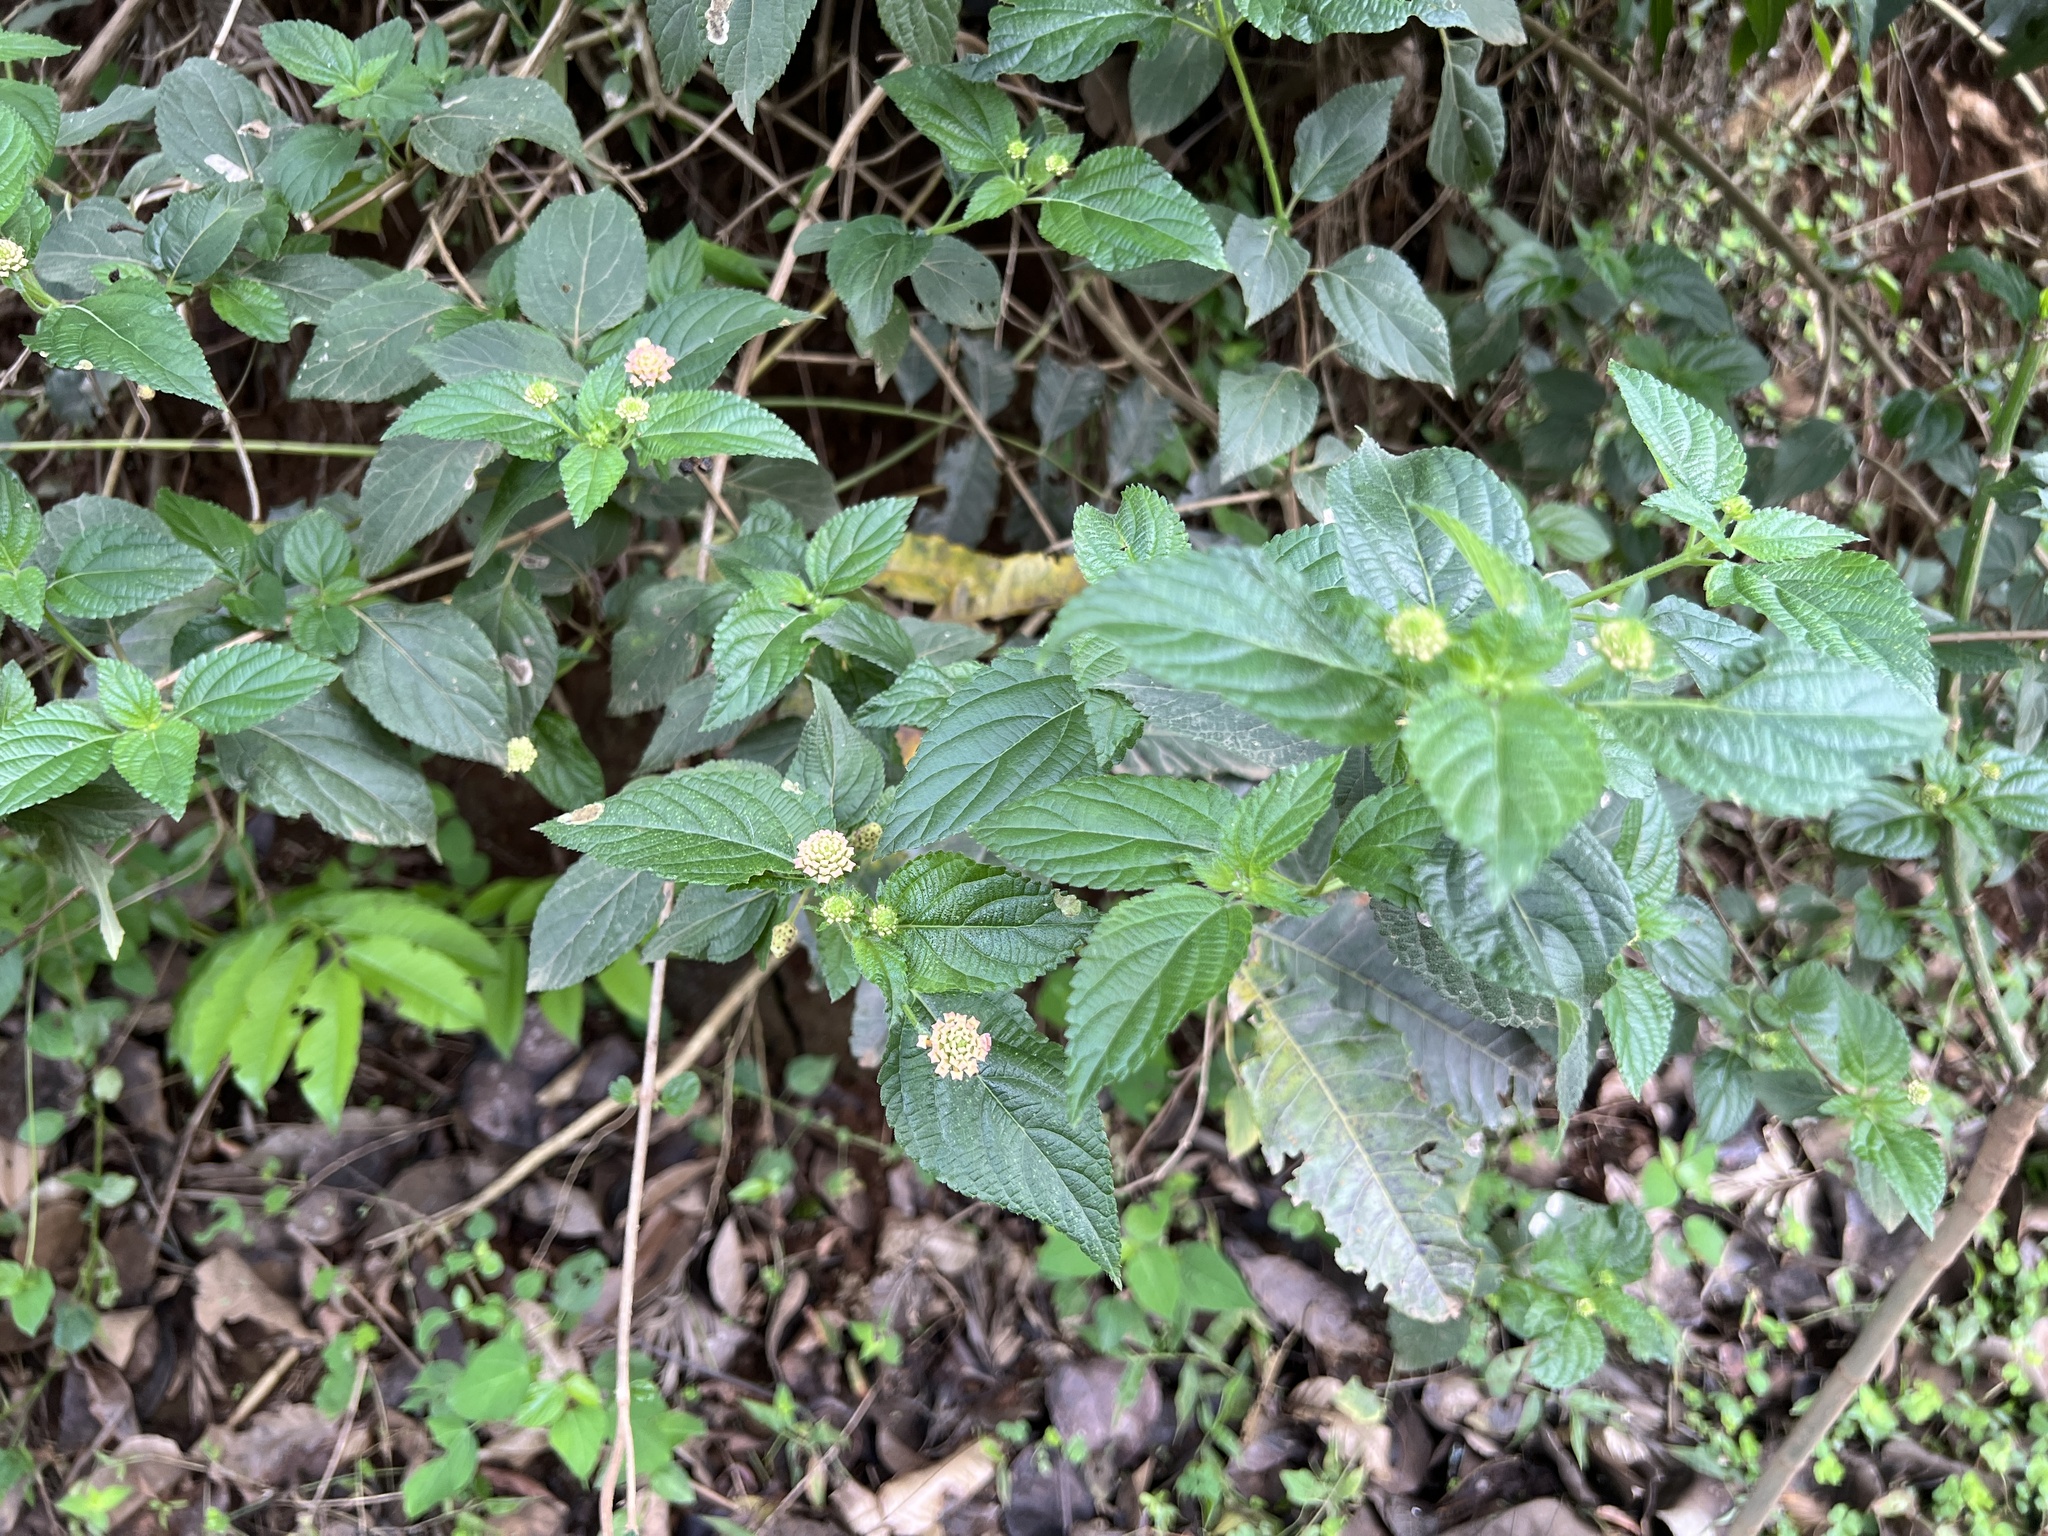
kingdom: Plantae
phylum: Tracheophyta
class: Magnoliopsida
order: Lamiales
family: Verbenaceae
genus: Lantana
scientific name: Lantana camara
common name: Lantana
